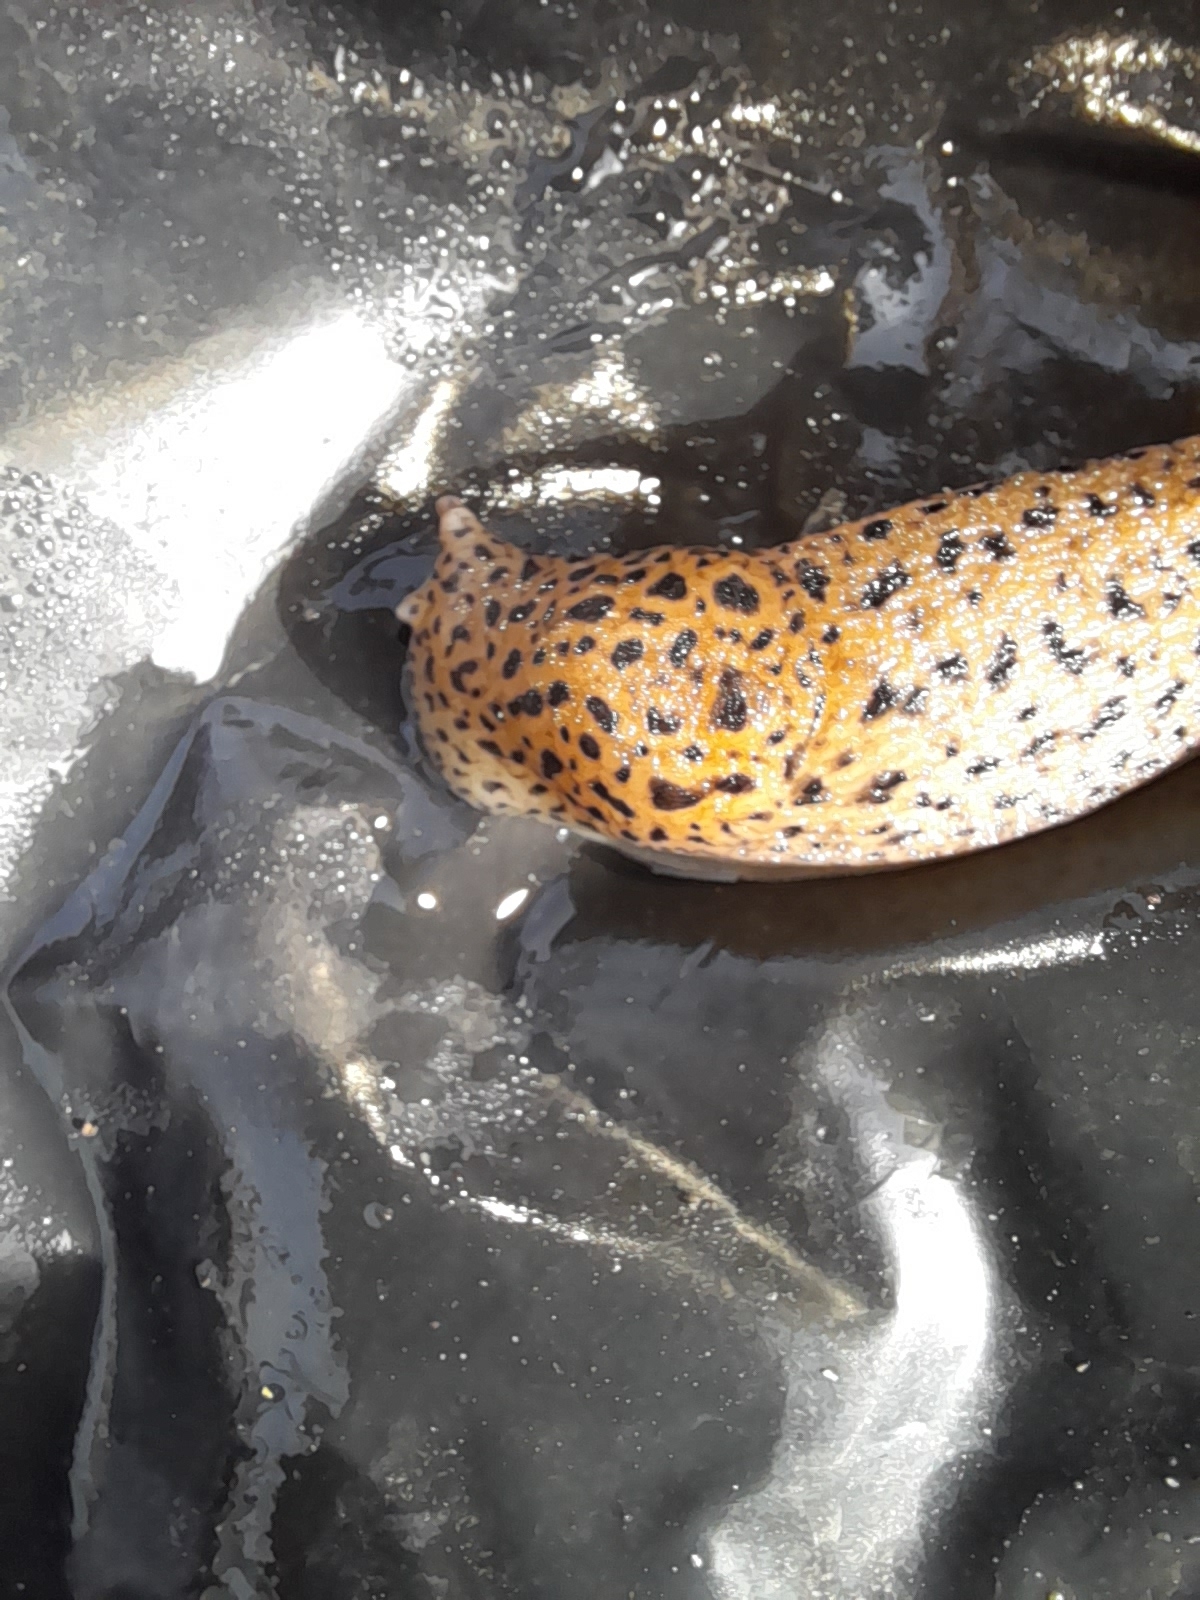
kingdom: Animalia
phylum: Mollusca
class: Gastropoda
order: Stylommatophora
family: Limacidae
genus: Limax
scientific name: Limax maximus
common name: Great grey slug
